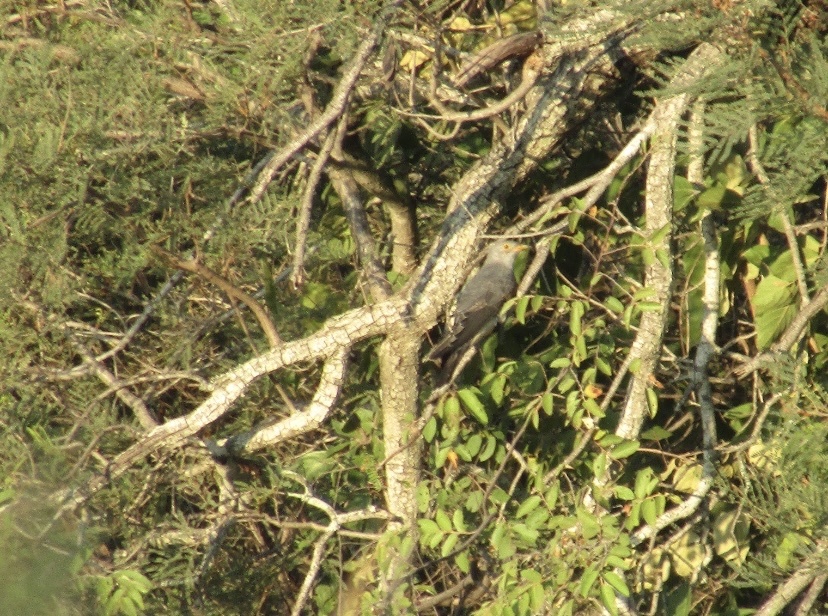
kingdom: Animalia
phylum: Chordata
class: Aves
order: Cuculiformes
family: Cuculidae
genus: Cuculus
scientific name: Cuculus canorus
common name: Common cuckoo
